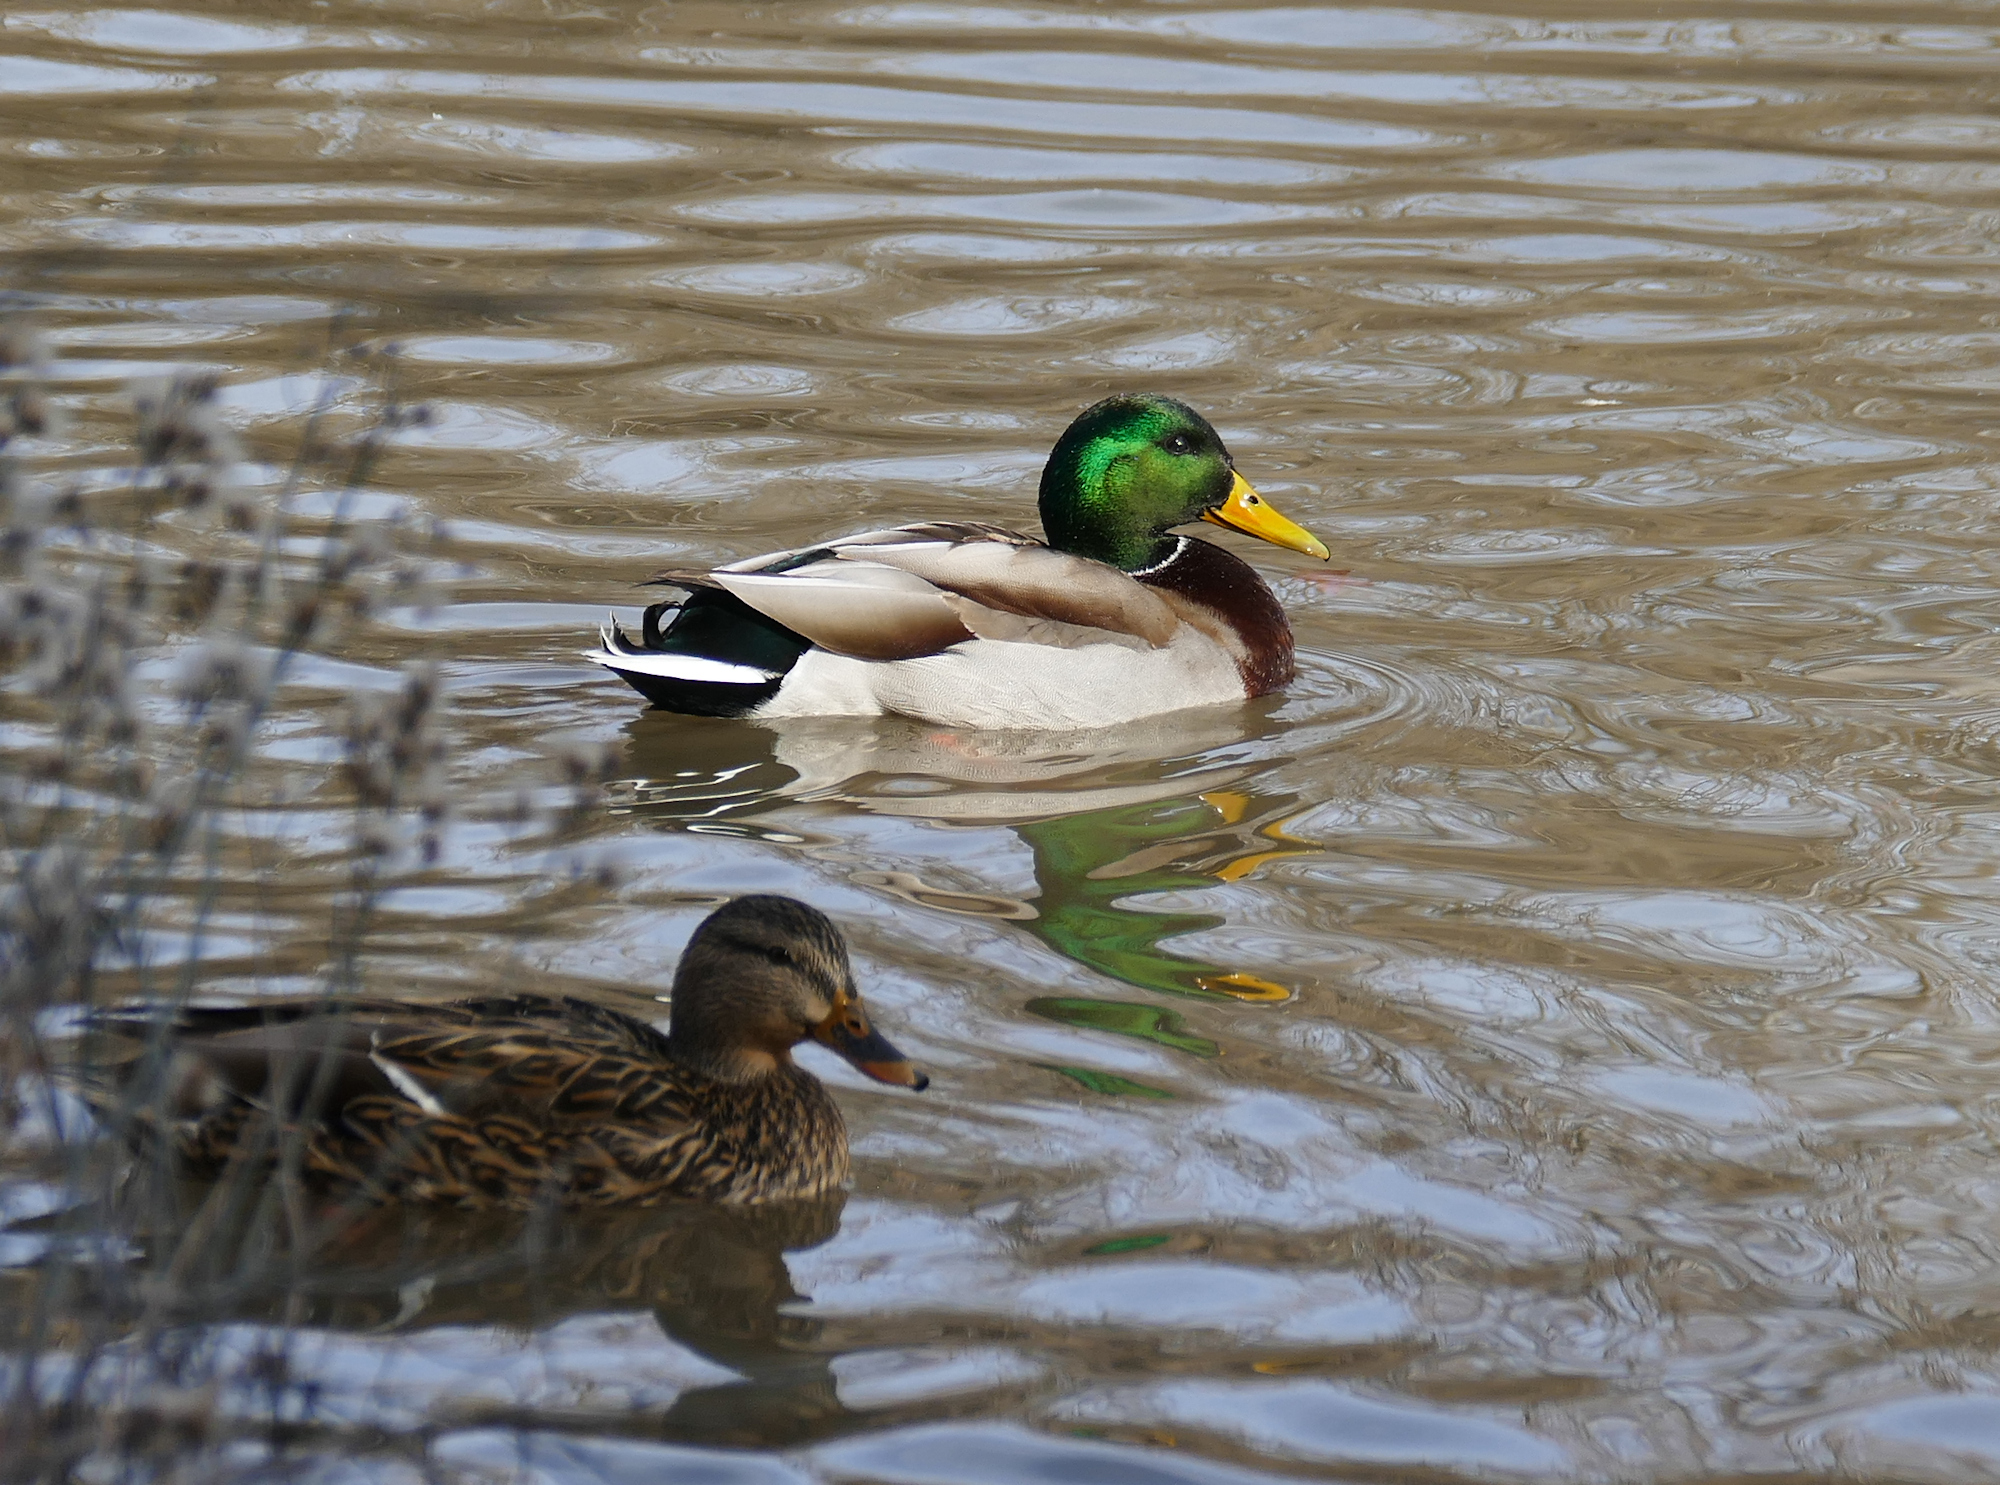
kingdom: Animalia
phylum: Chordata
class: Aves
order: Anseriformes
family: Anatidae
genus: Anas
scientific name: Anas platyrhynchos
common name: Mallard
